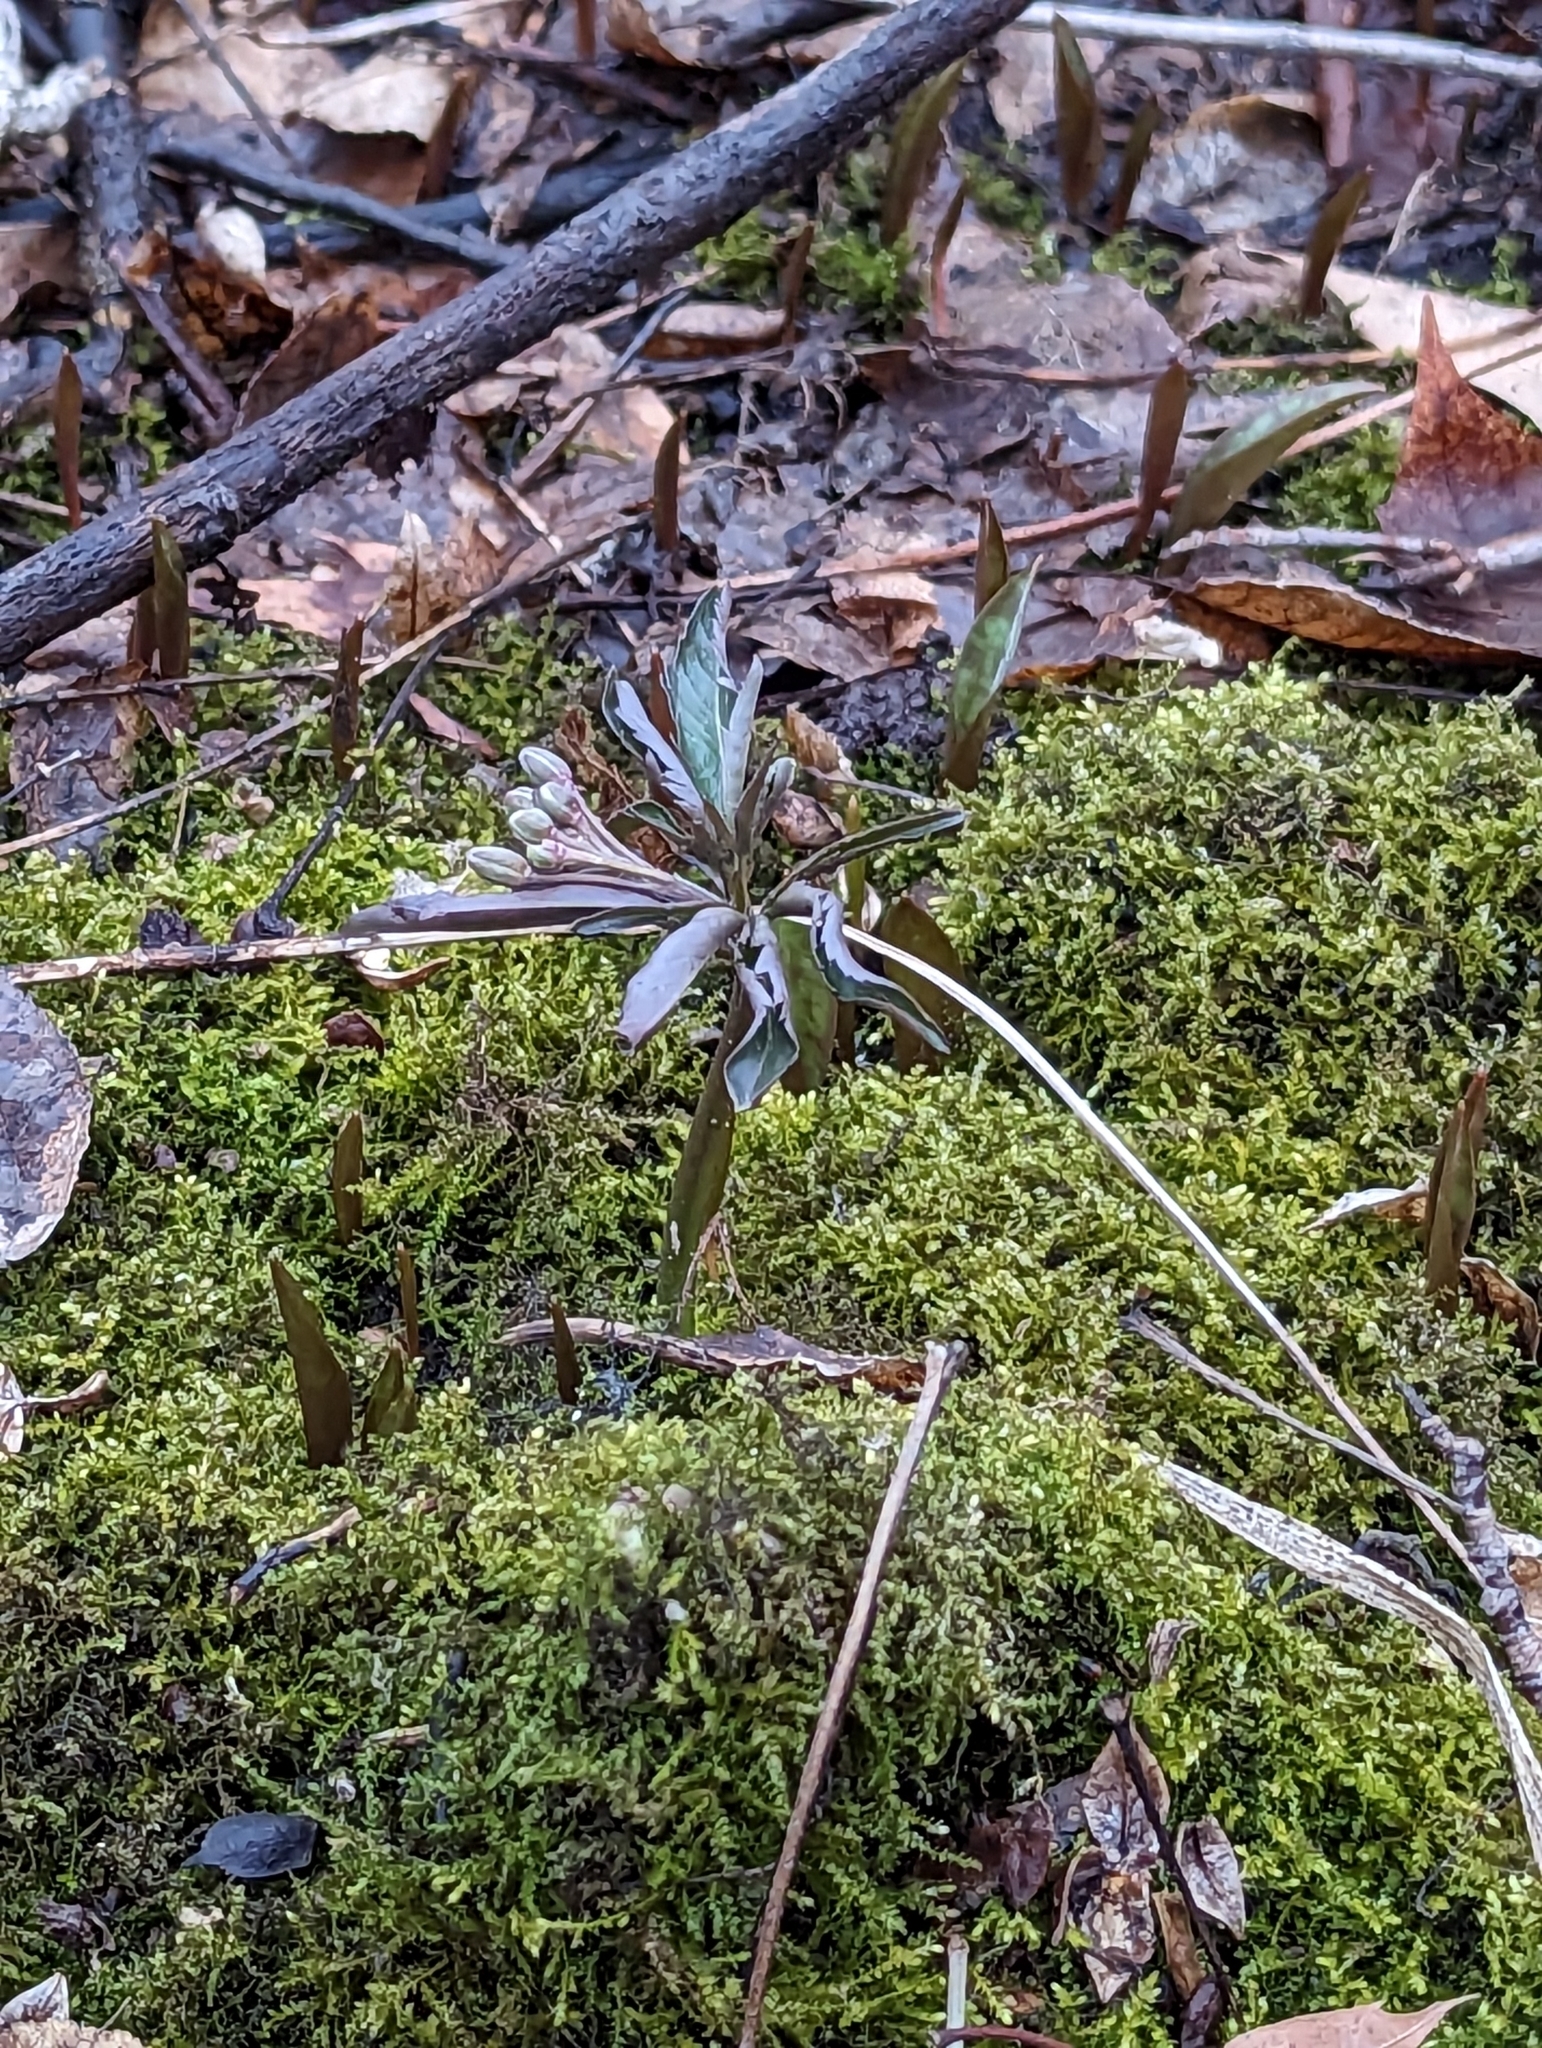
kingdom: Plantae
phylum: Tracheophyta
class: Magnoliopsida
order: Brassicales
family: Brassicaceae
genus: Cardamine
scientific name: Cardamine concatenata
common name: Cut-leaf toothcup
